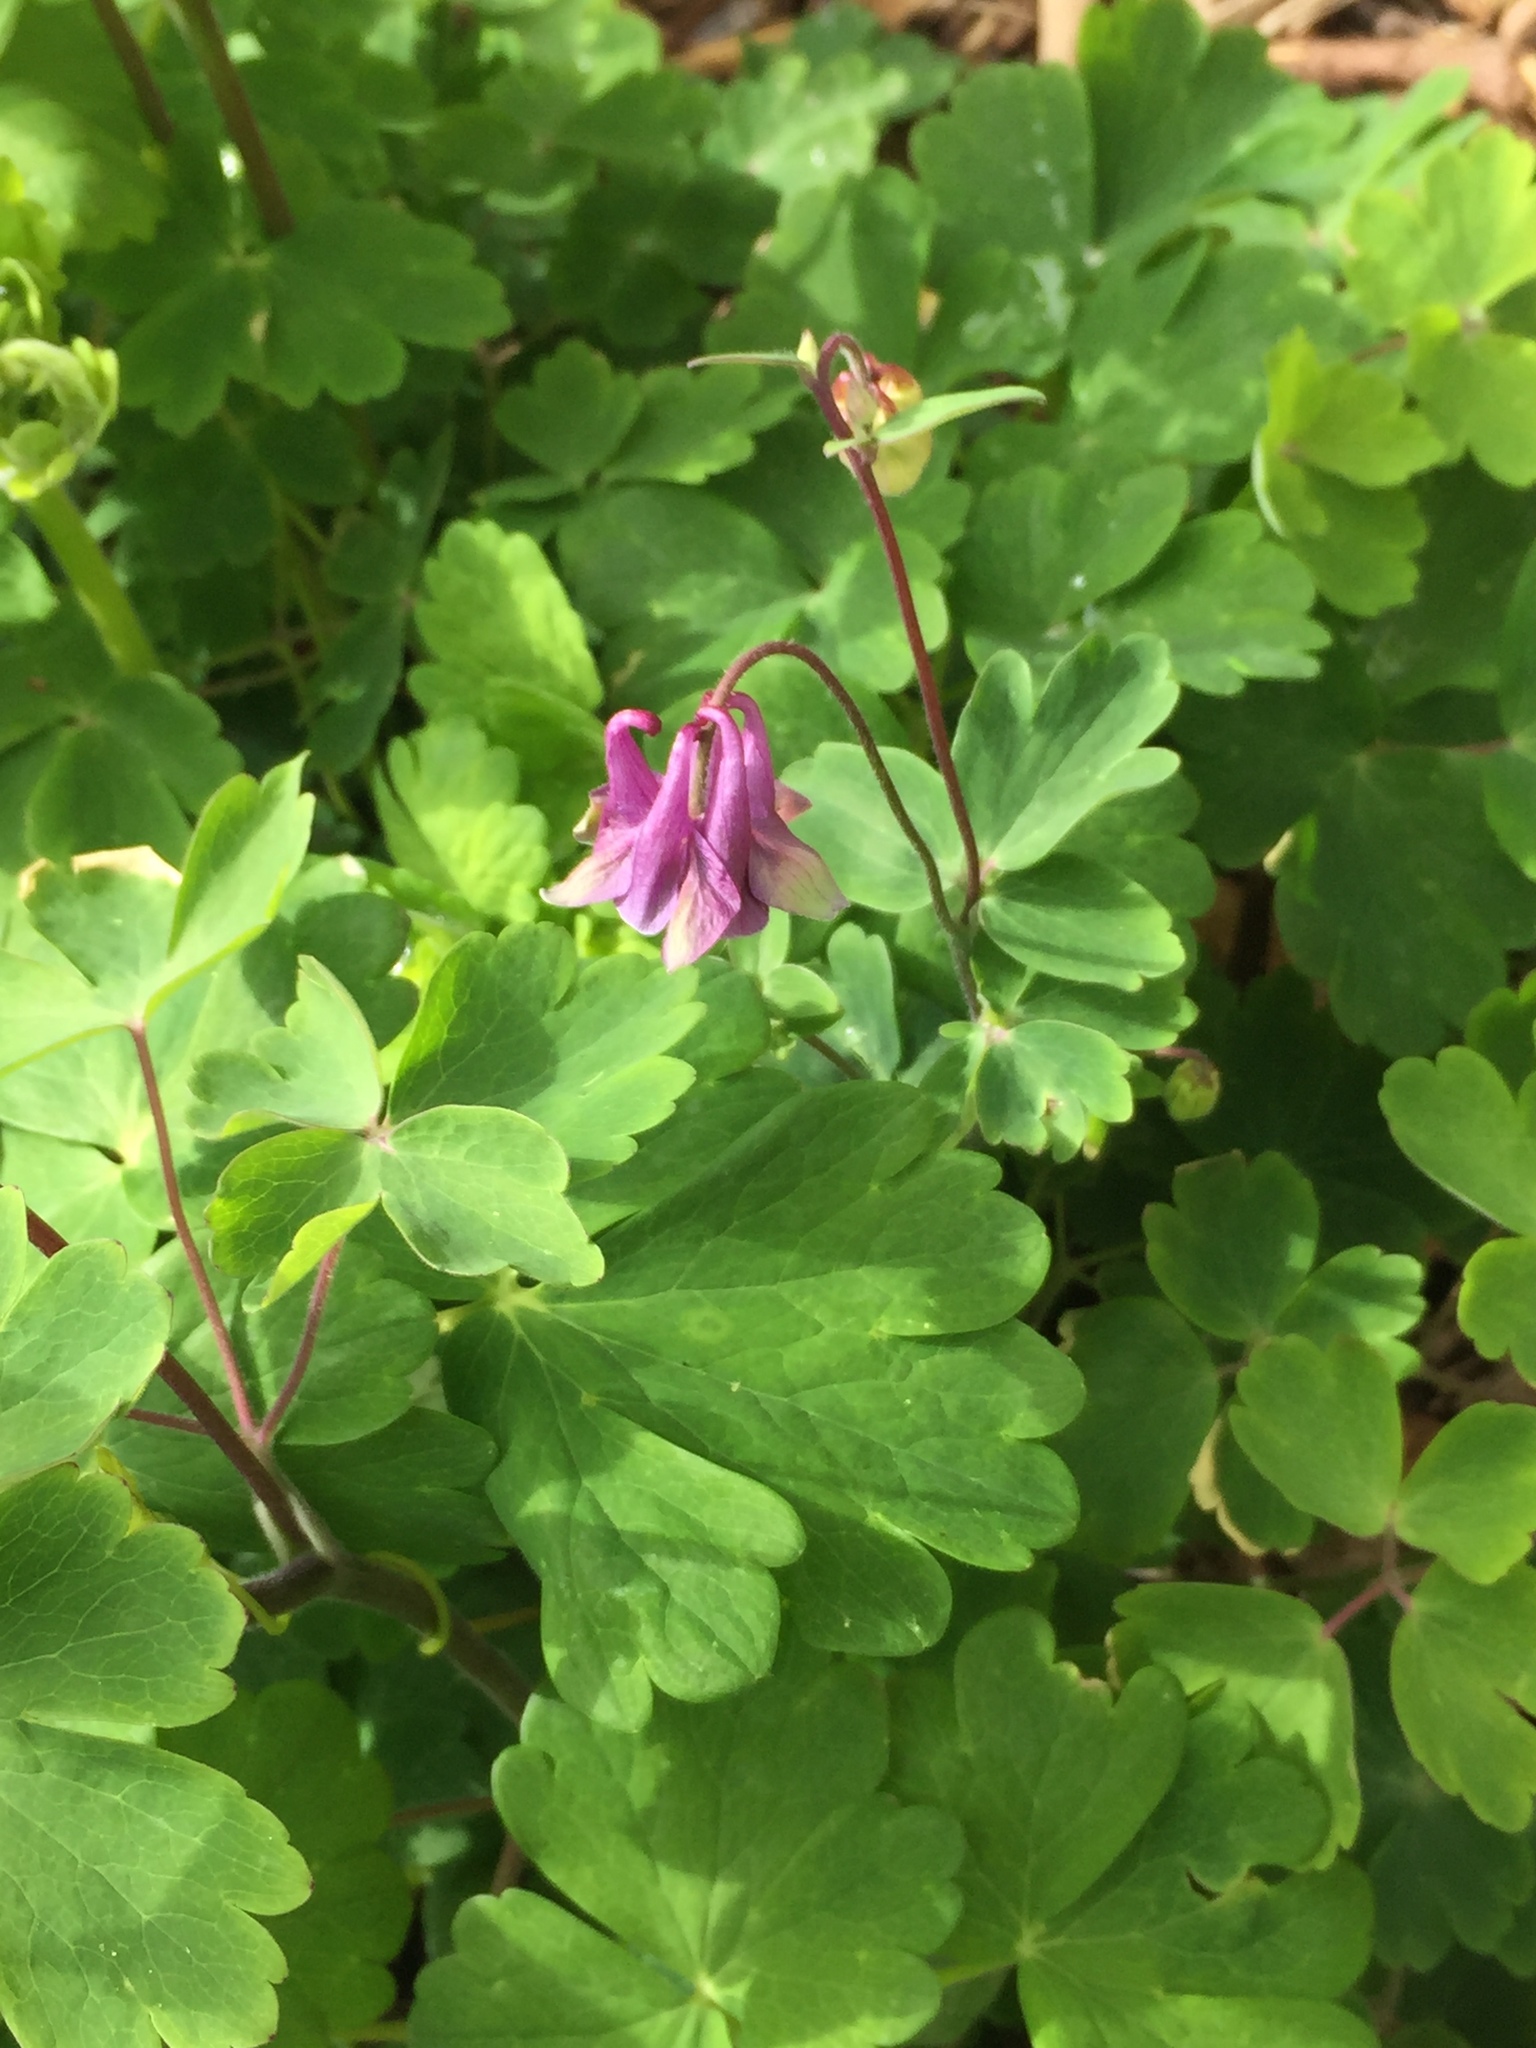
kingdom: Plantae
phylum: Tracheophyta
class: Magnoliopsida
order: Ranunculales
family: Ranunculaceae
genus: Aquilegia
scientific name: Aquilegia vulgaris
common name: Columbine
